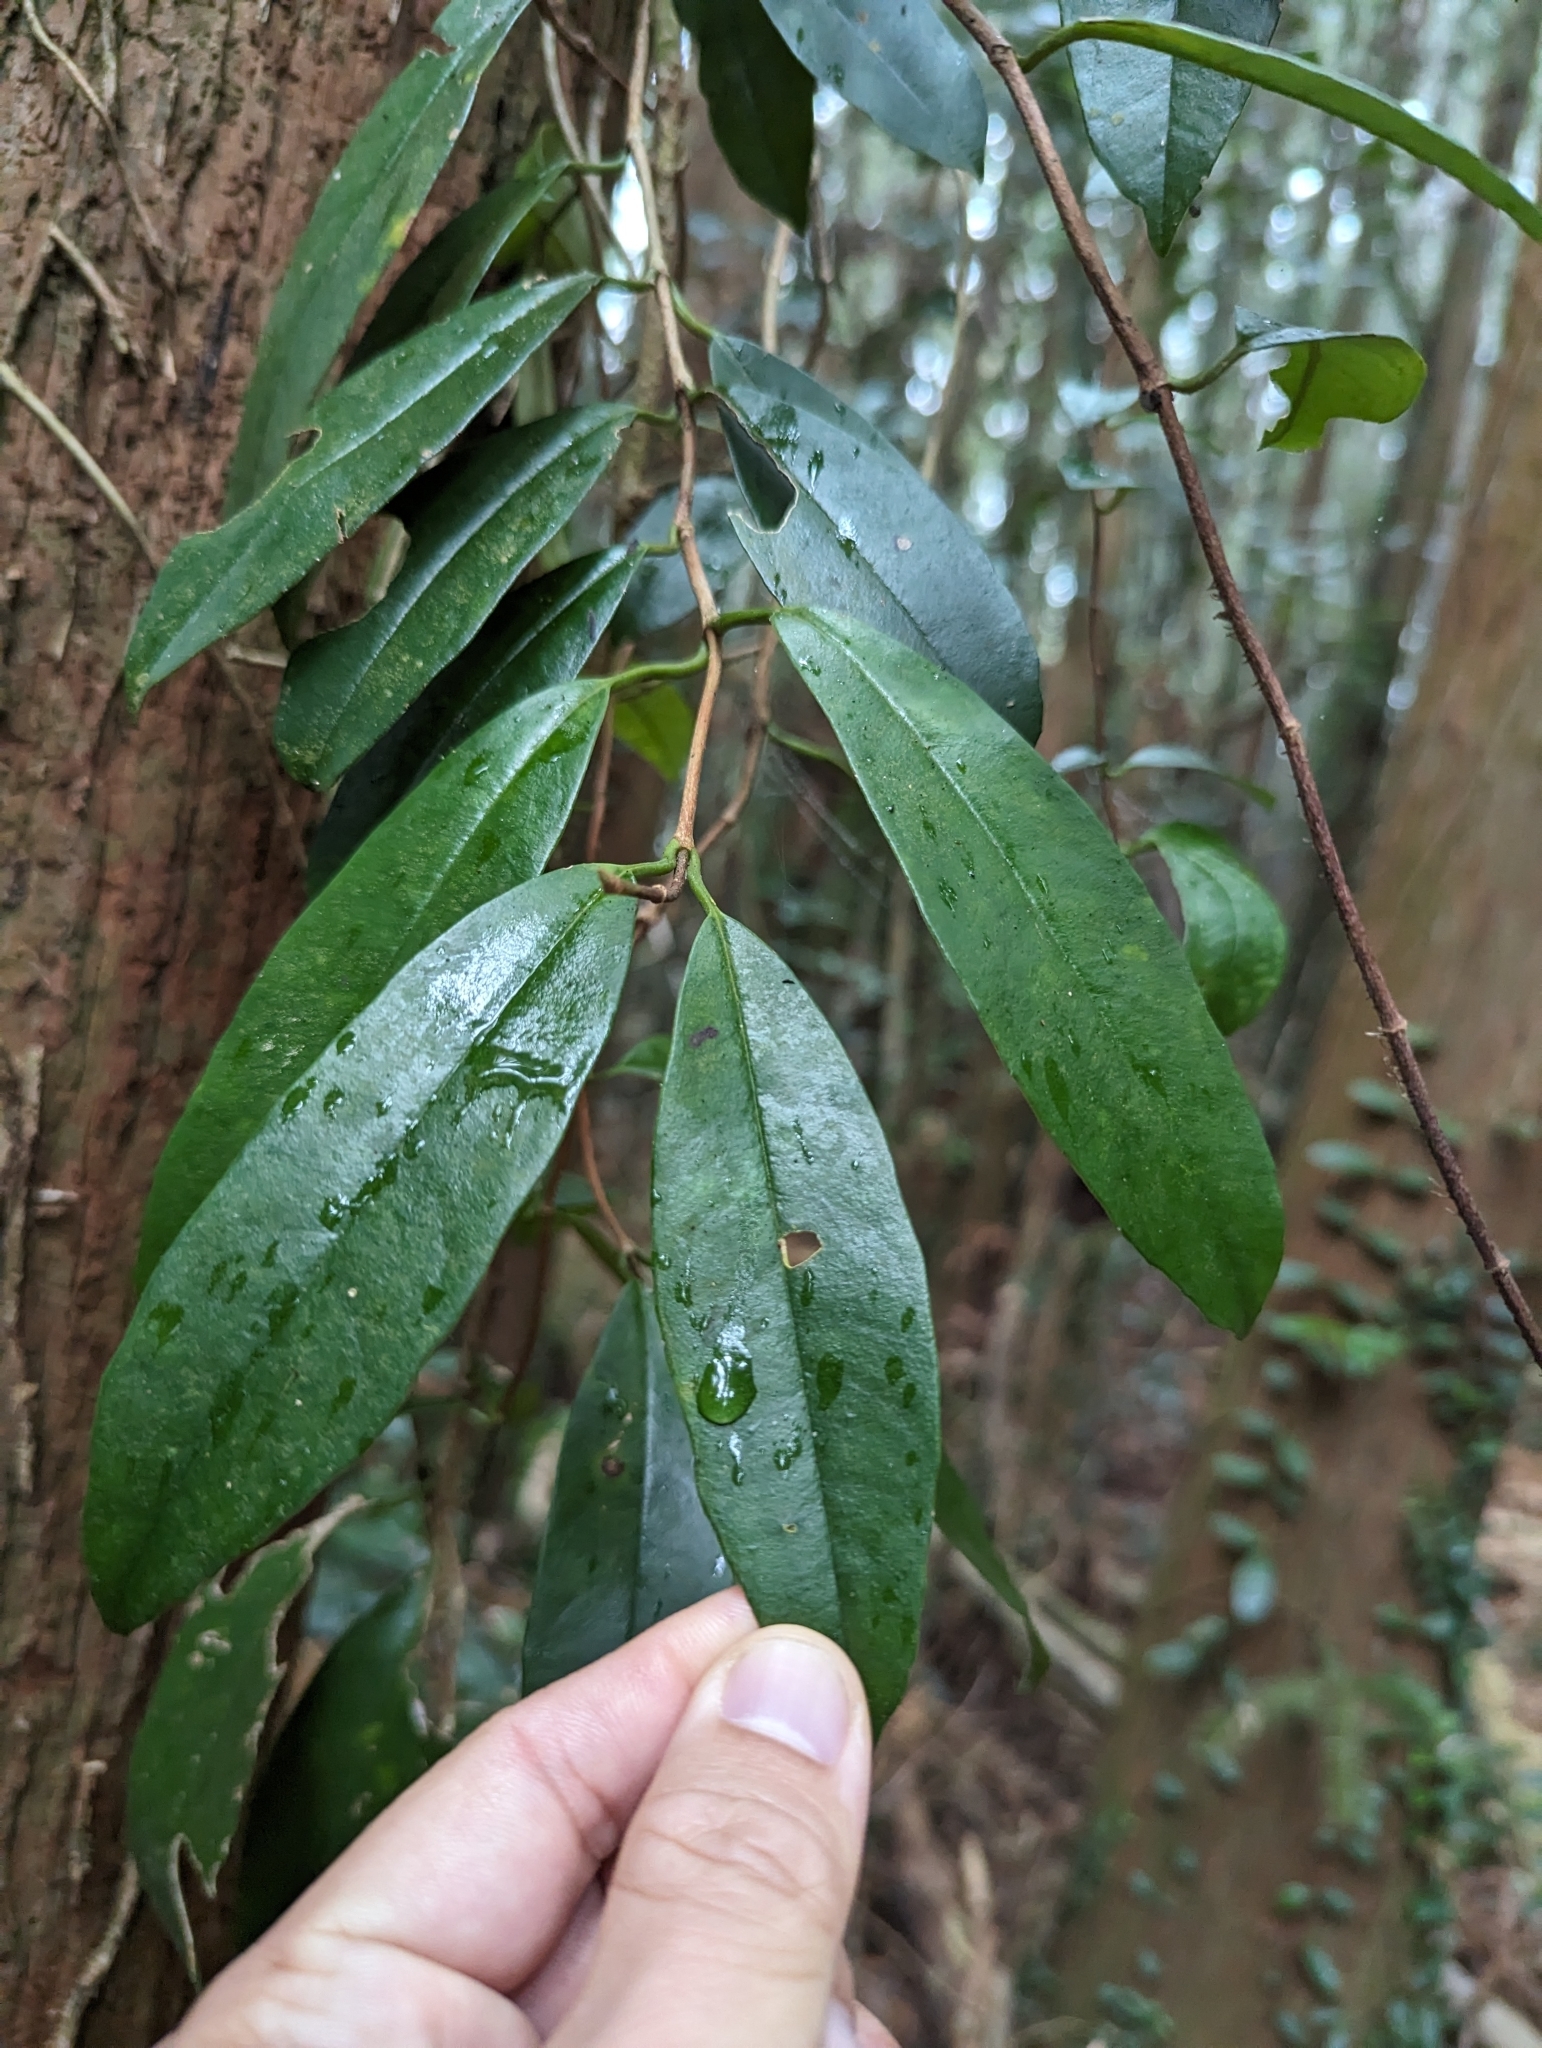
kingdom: Plantae
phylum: Tracheophyta
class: Magnoliopsida
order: Cornales
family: Hydrangeaceae
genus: Hydrangea
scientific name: Hydrangea viburnoides
